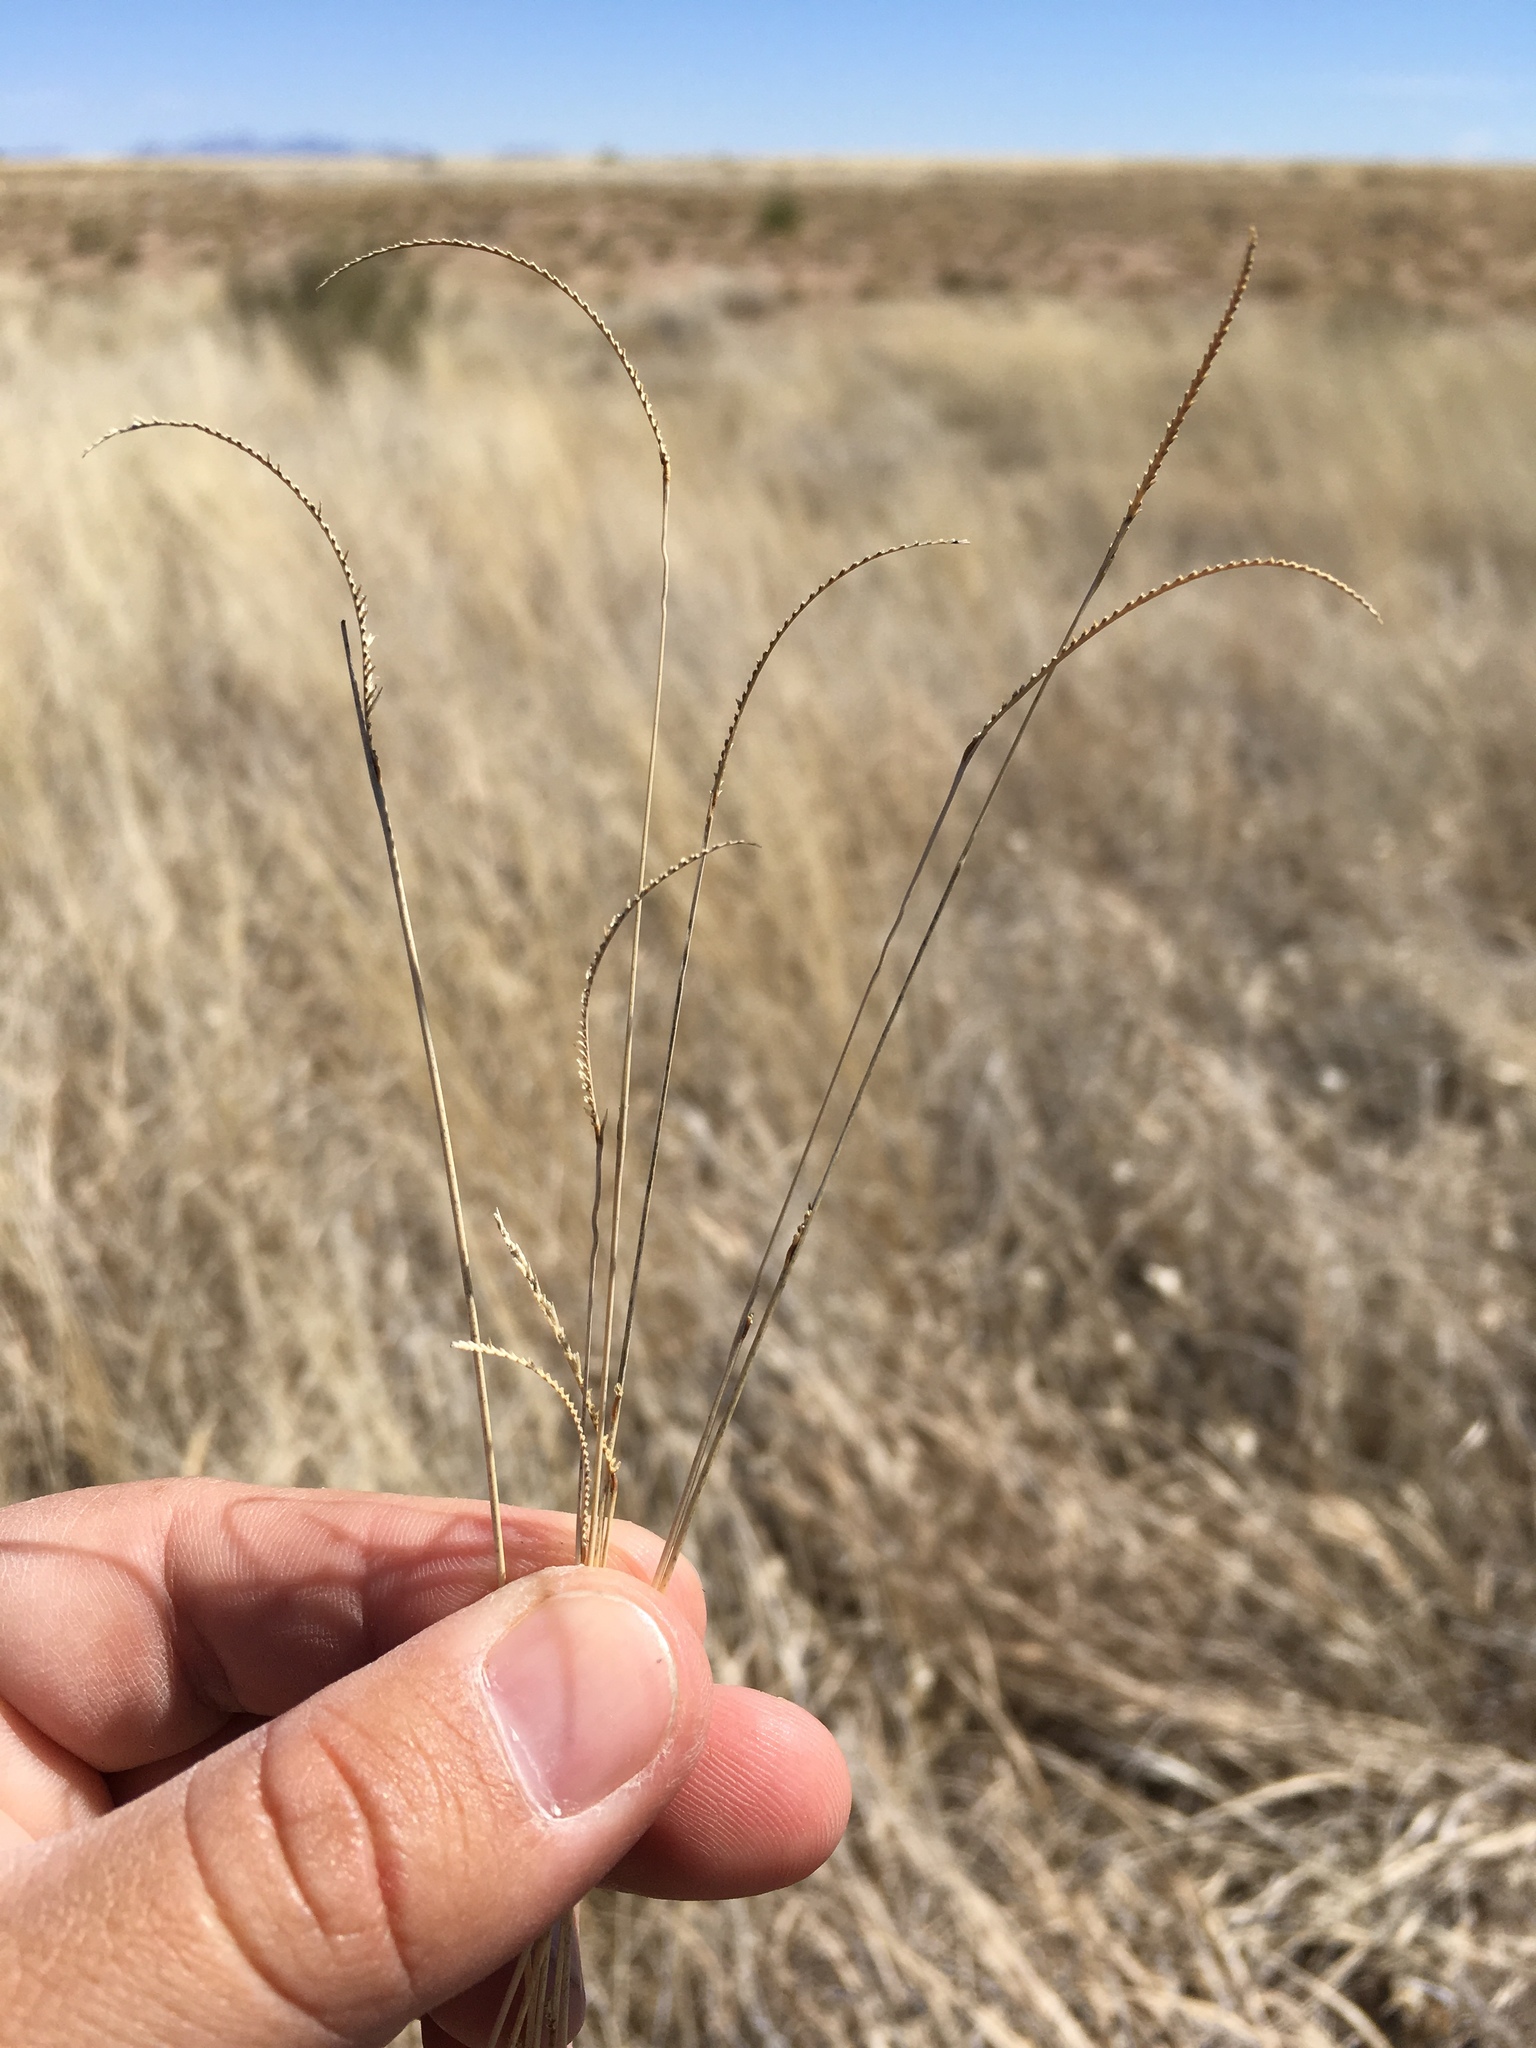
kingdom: Plantae
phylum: Tracheophyta
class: Liliopsida
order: Poales
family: Poaceae
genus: Bouteloua
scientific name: Bouteloua gracilis
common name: Blue grama
